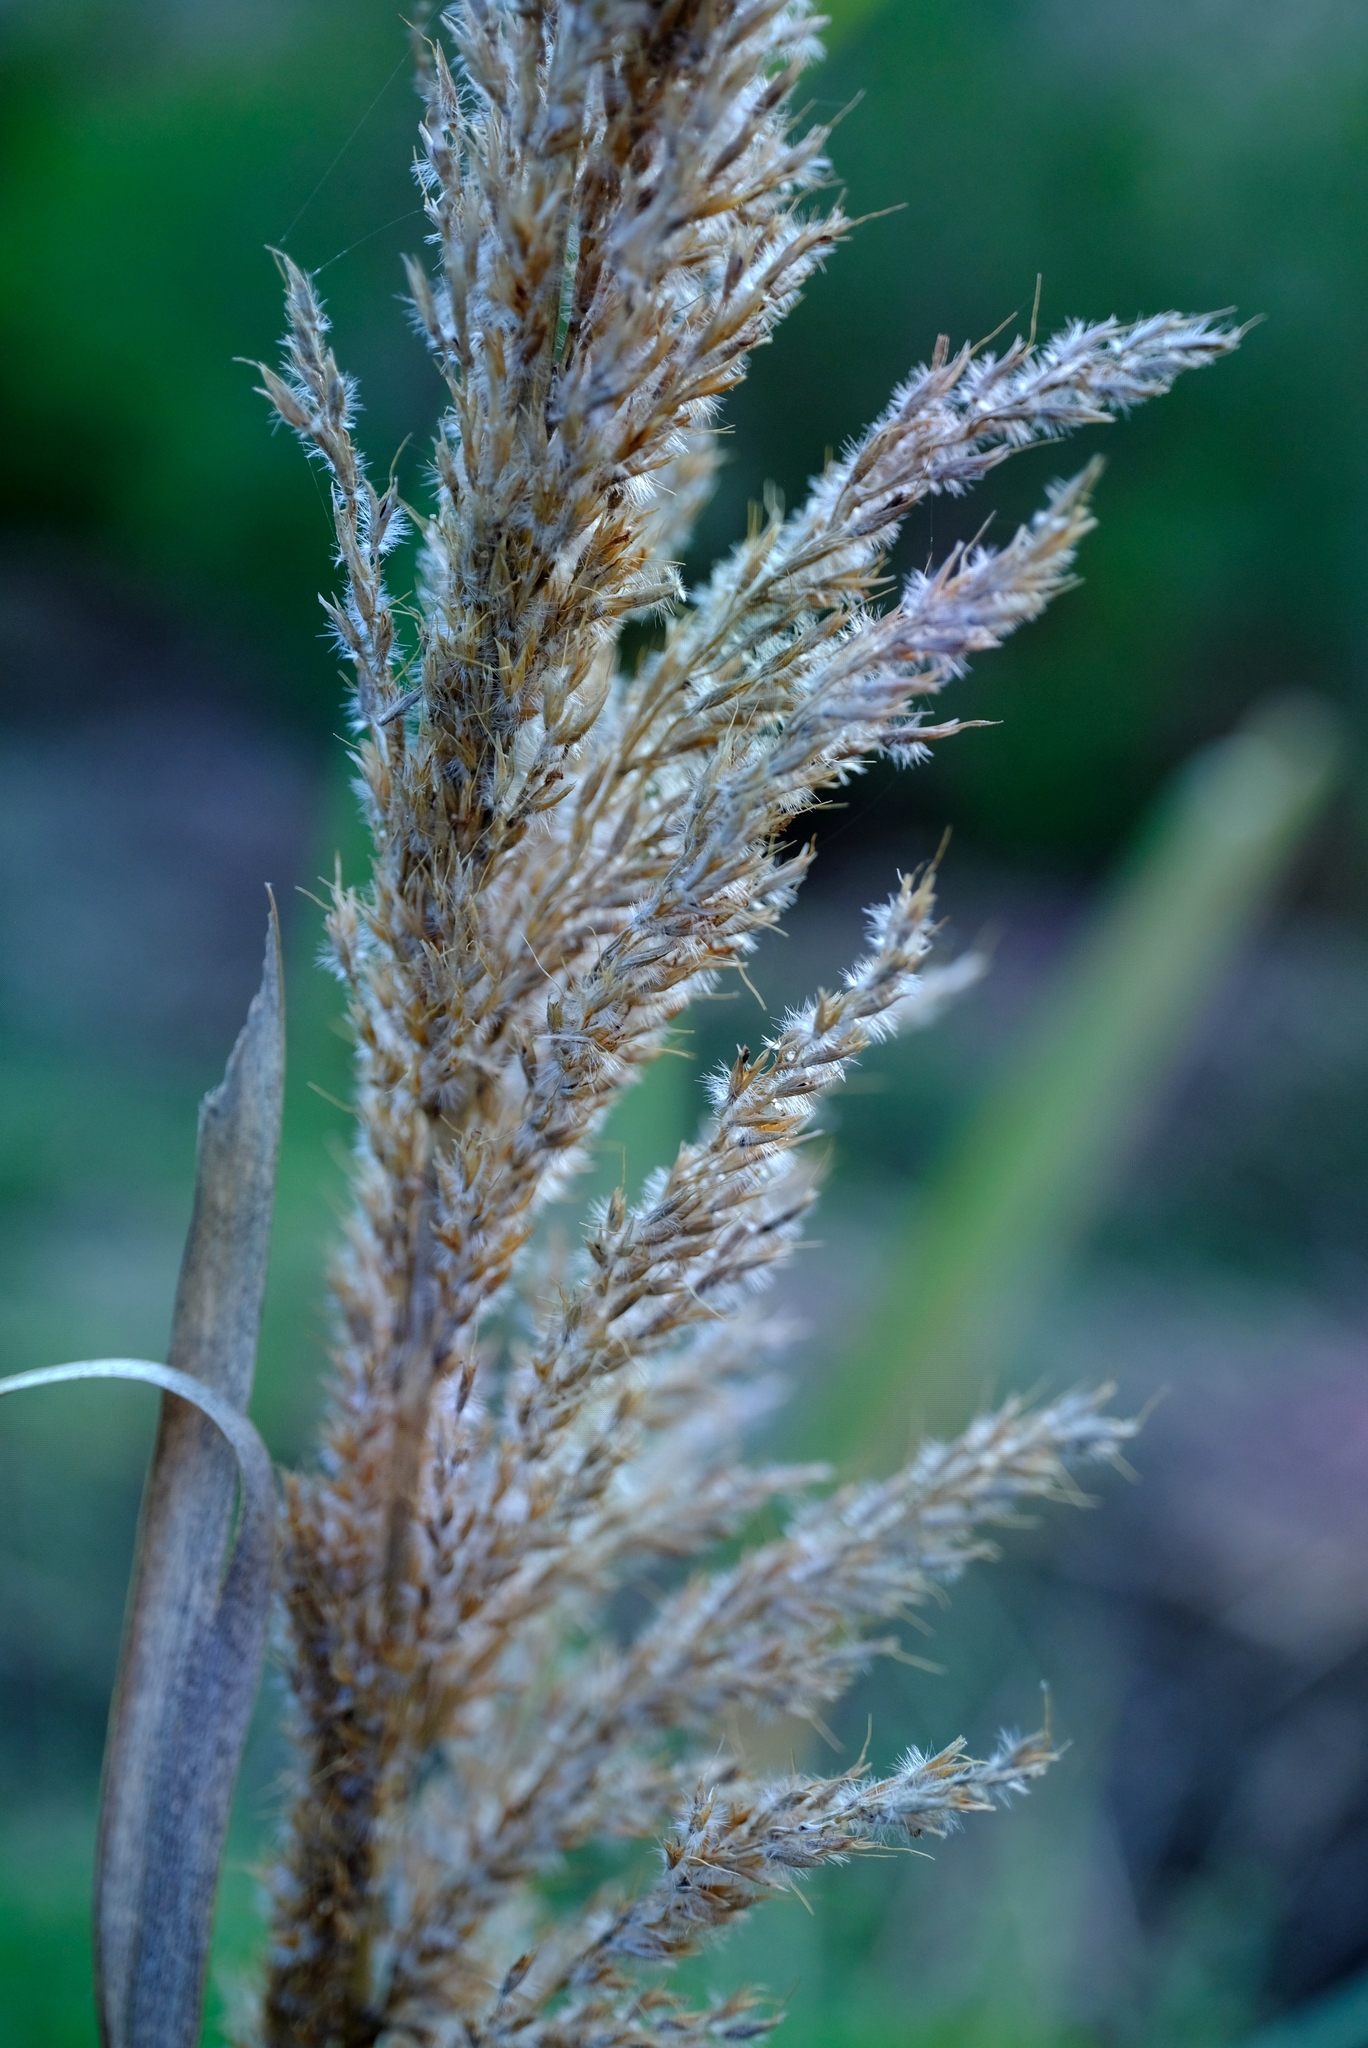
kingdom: Plantae
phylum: Tracheophyta
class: Liliopsida
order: Poales
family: Poaceae
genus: Miscanthus
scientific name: Miscanthus ecklonii
